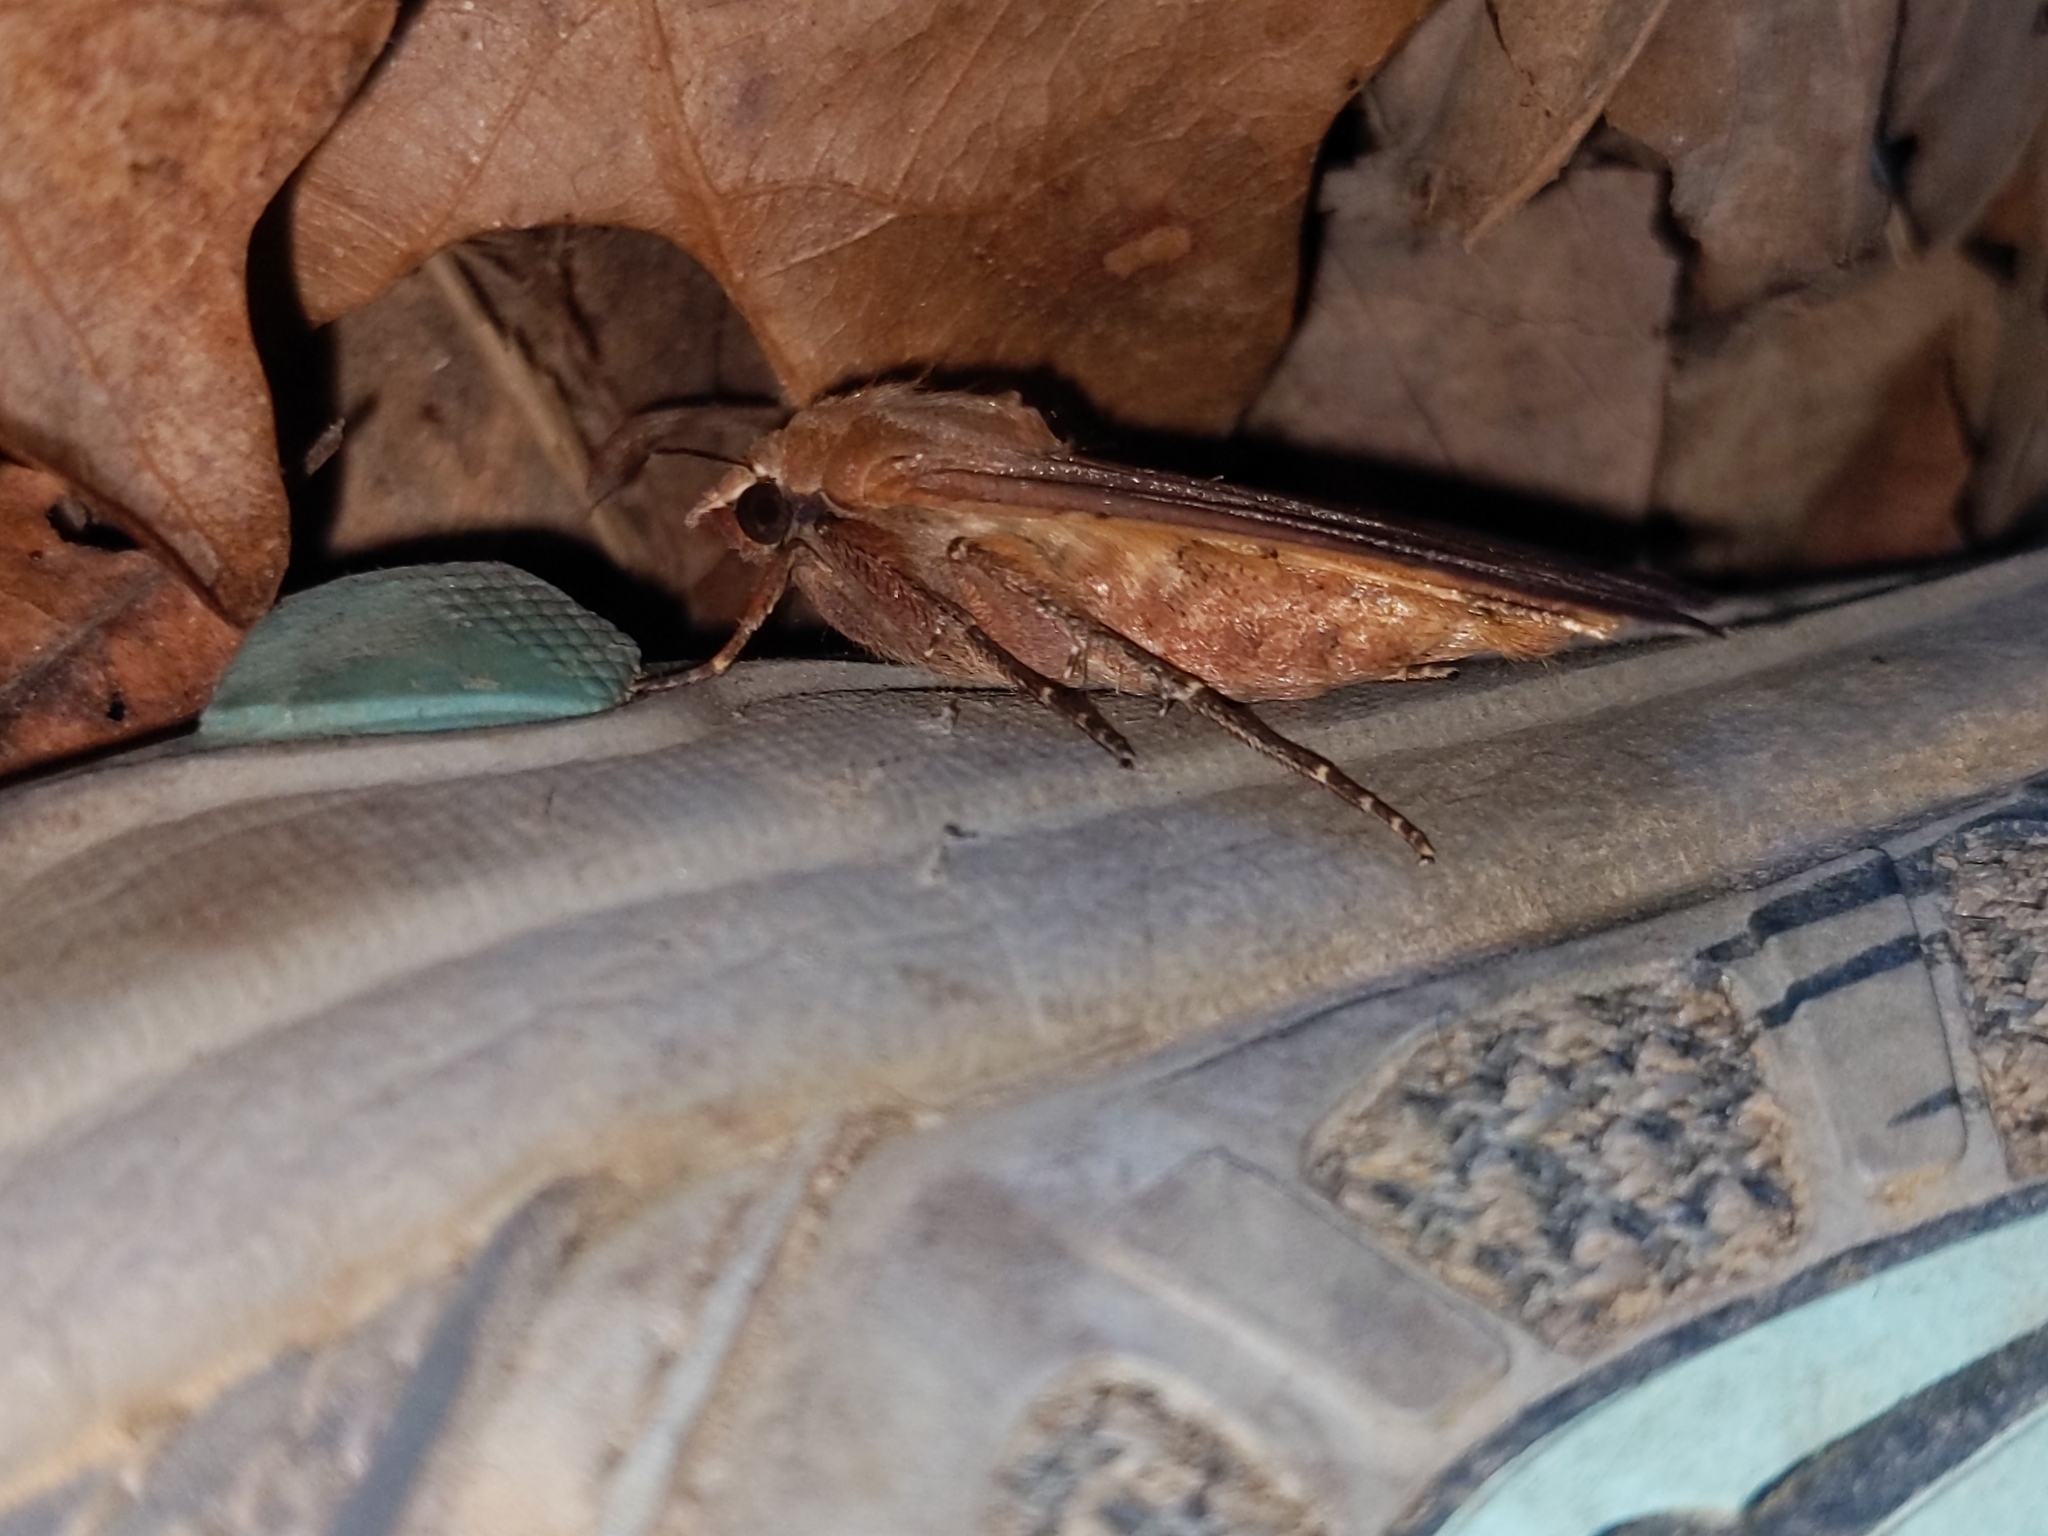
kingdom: Animalia
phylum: Arthropoda
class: Insecta
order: Lepidoptera
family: Noctuidae
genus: Noctua
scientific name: Noctua pronuba
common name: Large yellow underwing
